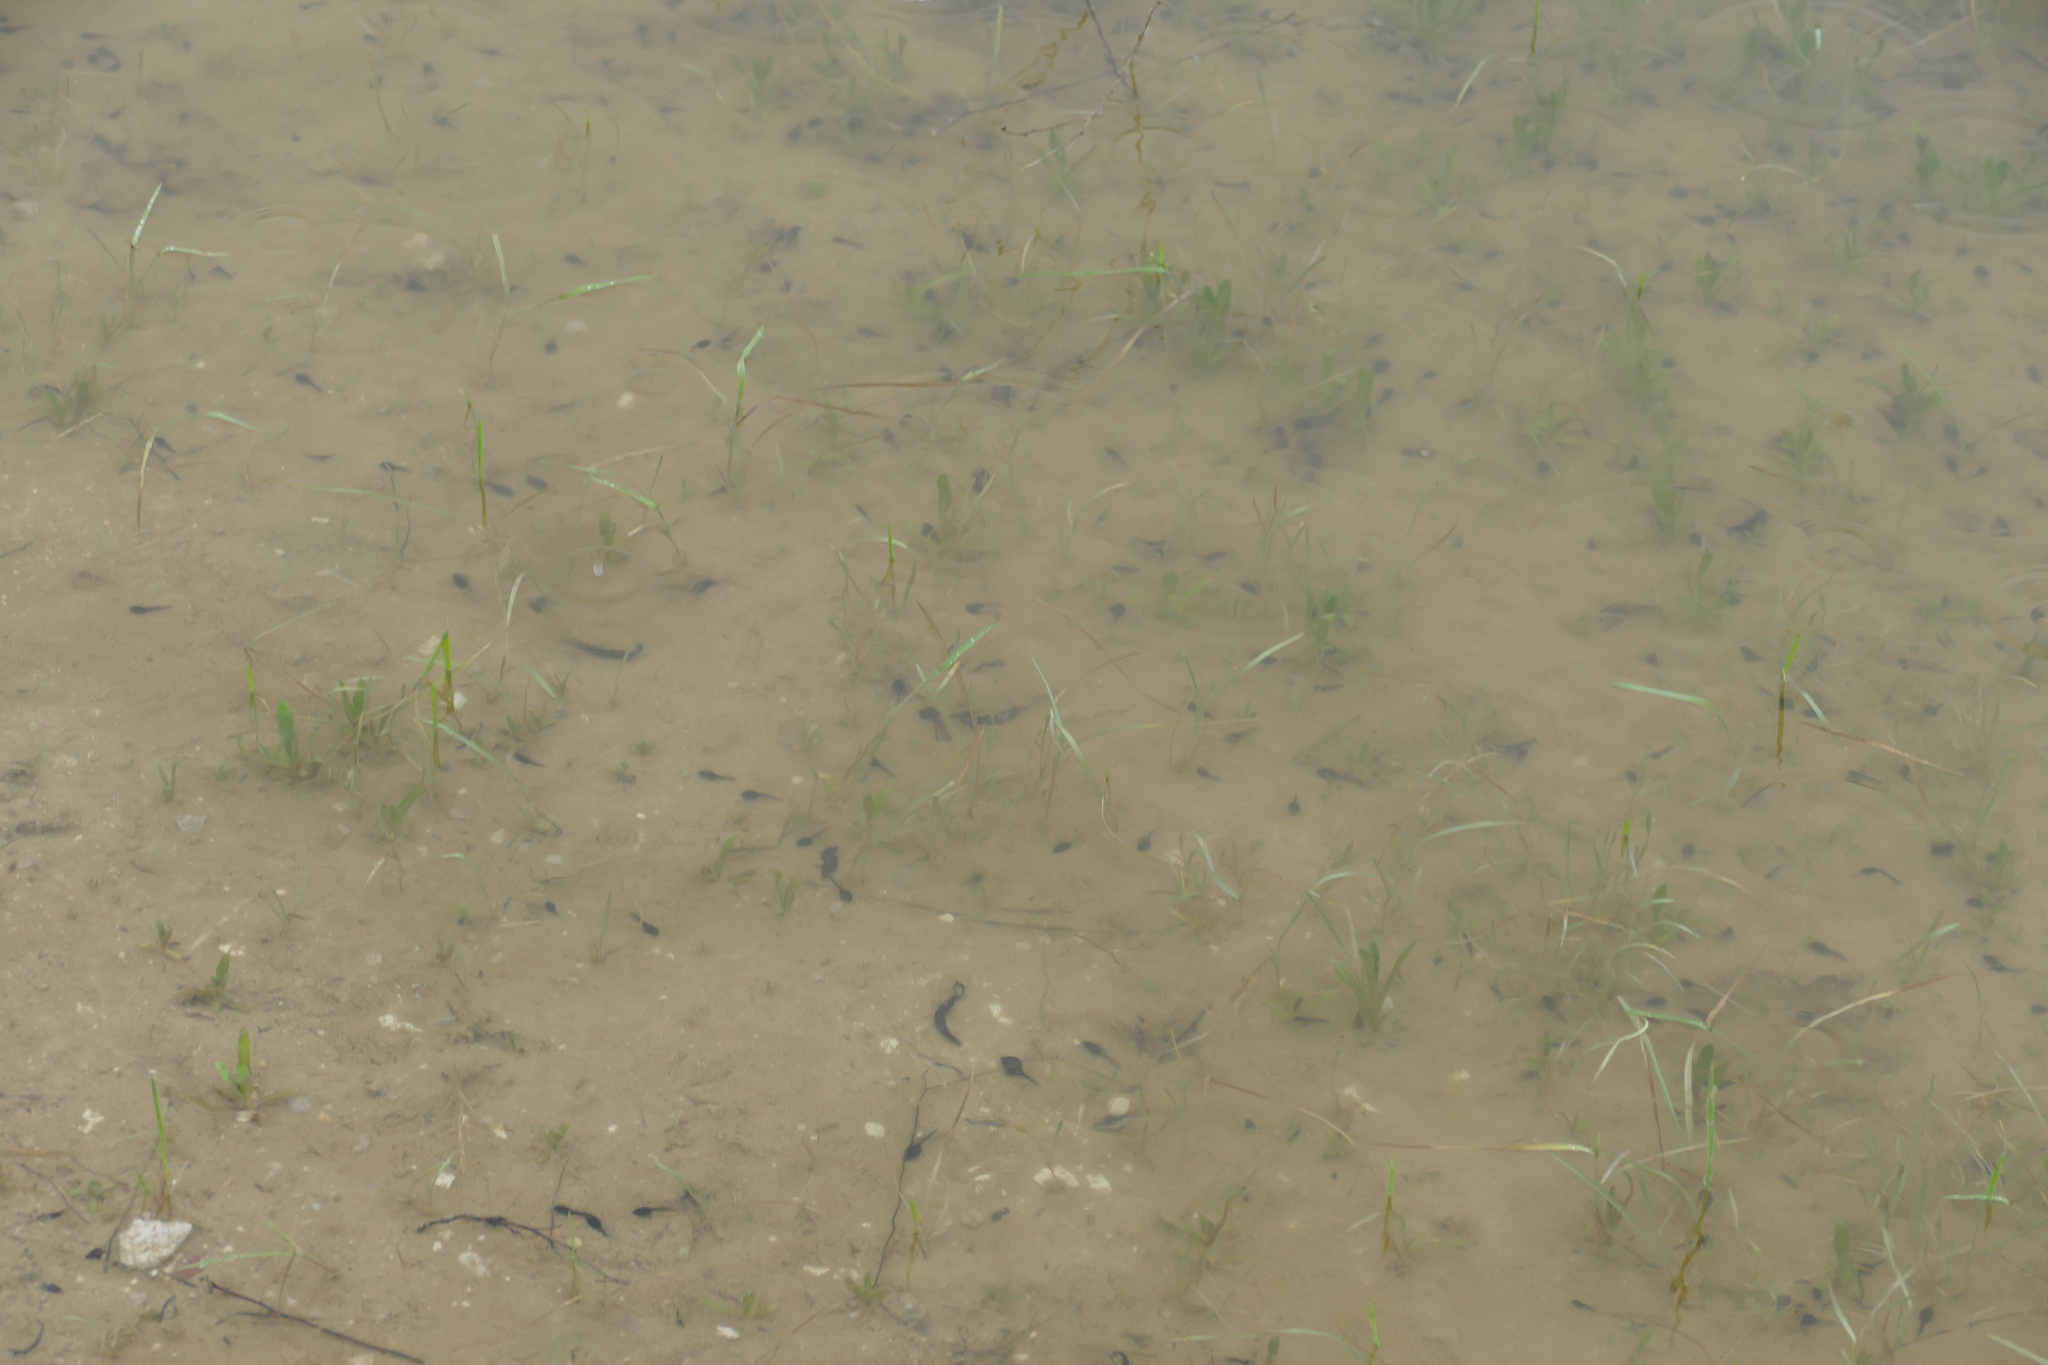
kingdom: Animalia
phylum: Chordata
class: Amphibia
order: Anura
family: Bufonidae
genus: Epidalea
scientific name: Epidalea calamita
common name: Natterjack toad
